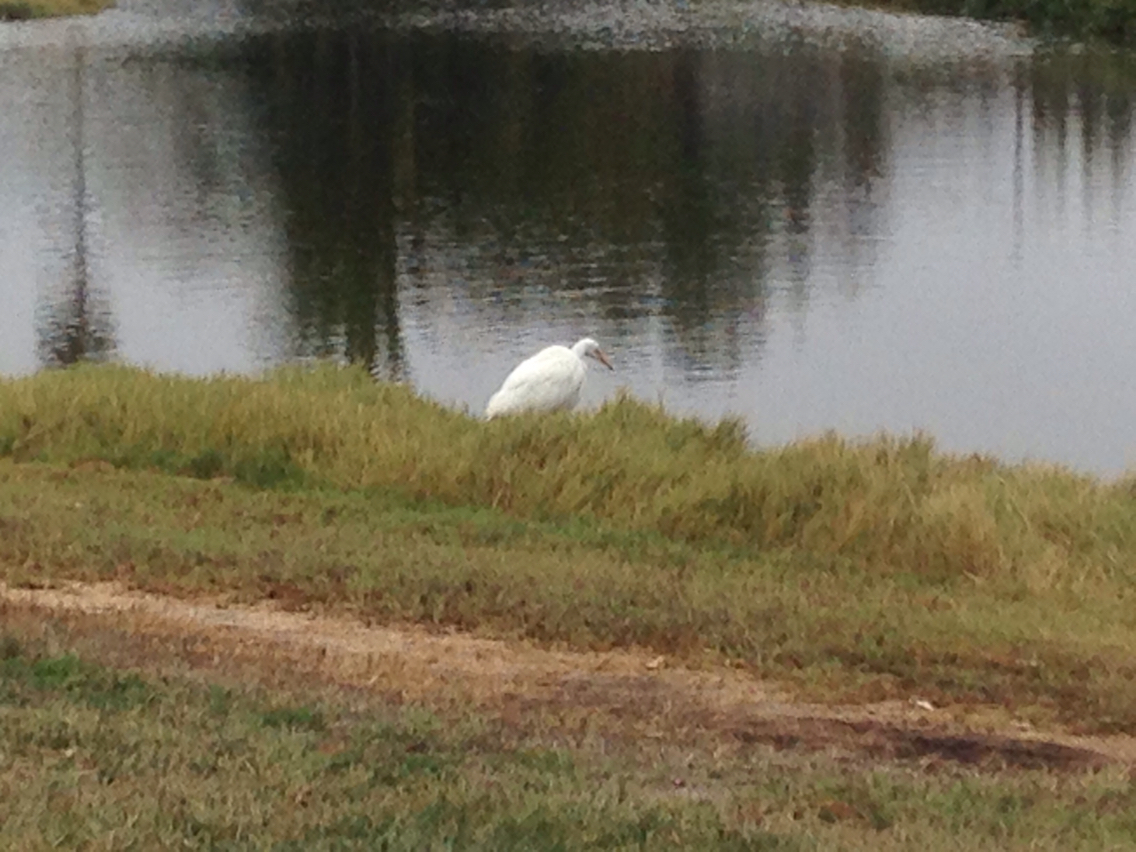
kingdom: Animalia
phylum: Chordata
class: Aves
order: Pelecaniformes
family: Ardeidae
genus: Ardea
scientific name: Ardea alba
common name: Great egret
